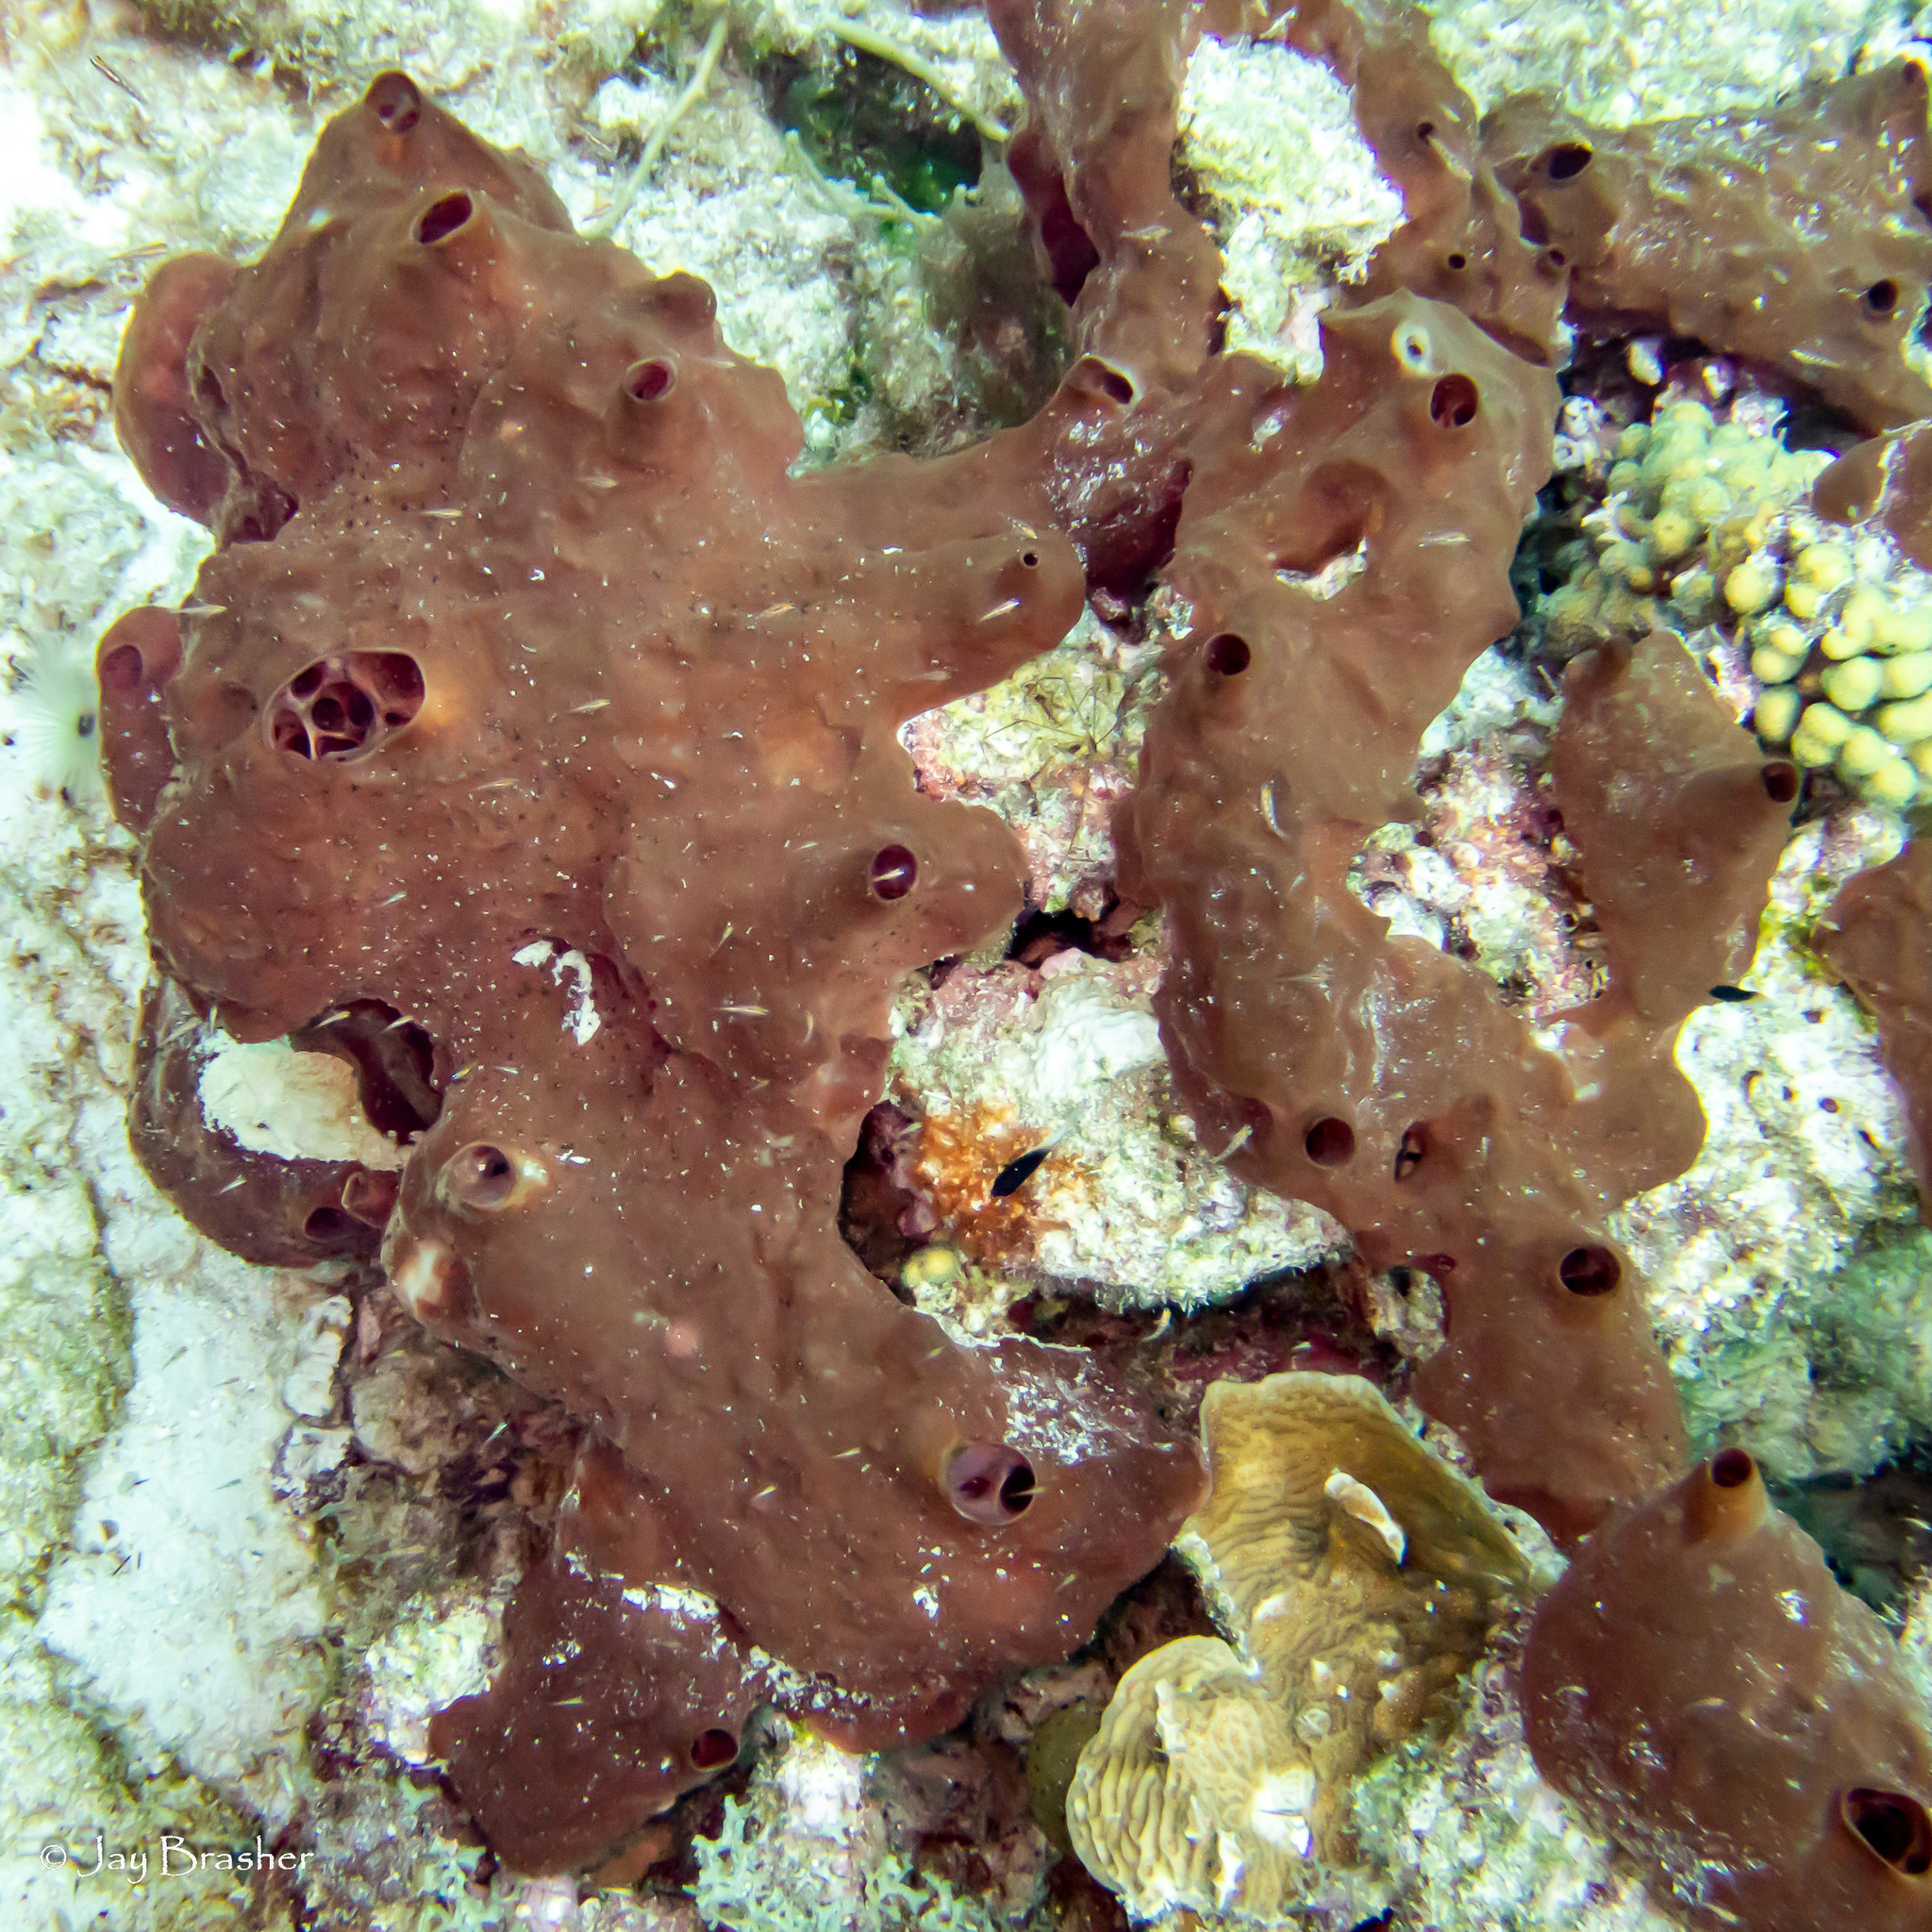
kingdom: Animalia
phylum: Porifera
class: Demospongiae
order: Scopalinida
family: Scopalinidae
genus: Svenzea
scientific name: Svenzea zeai
